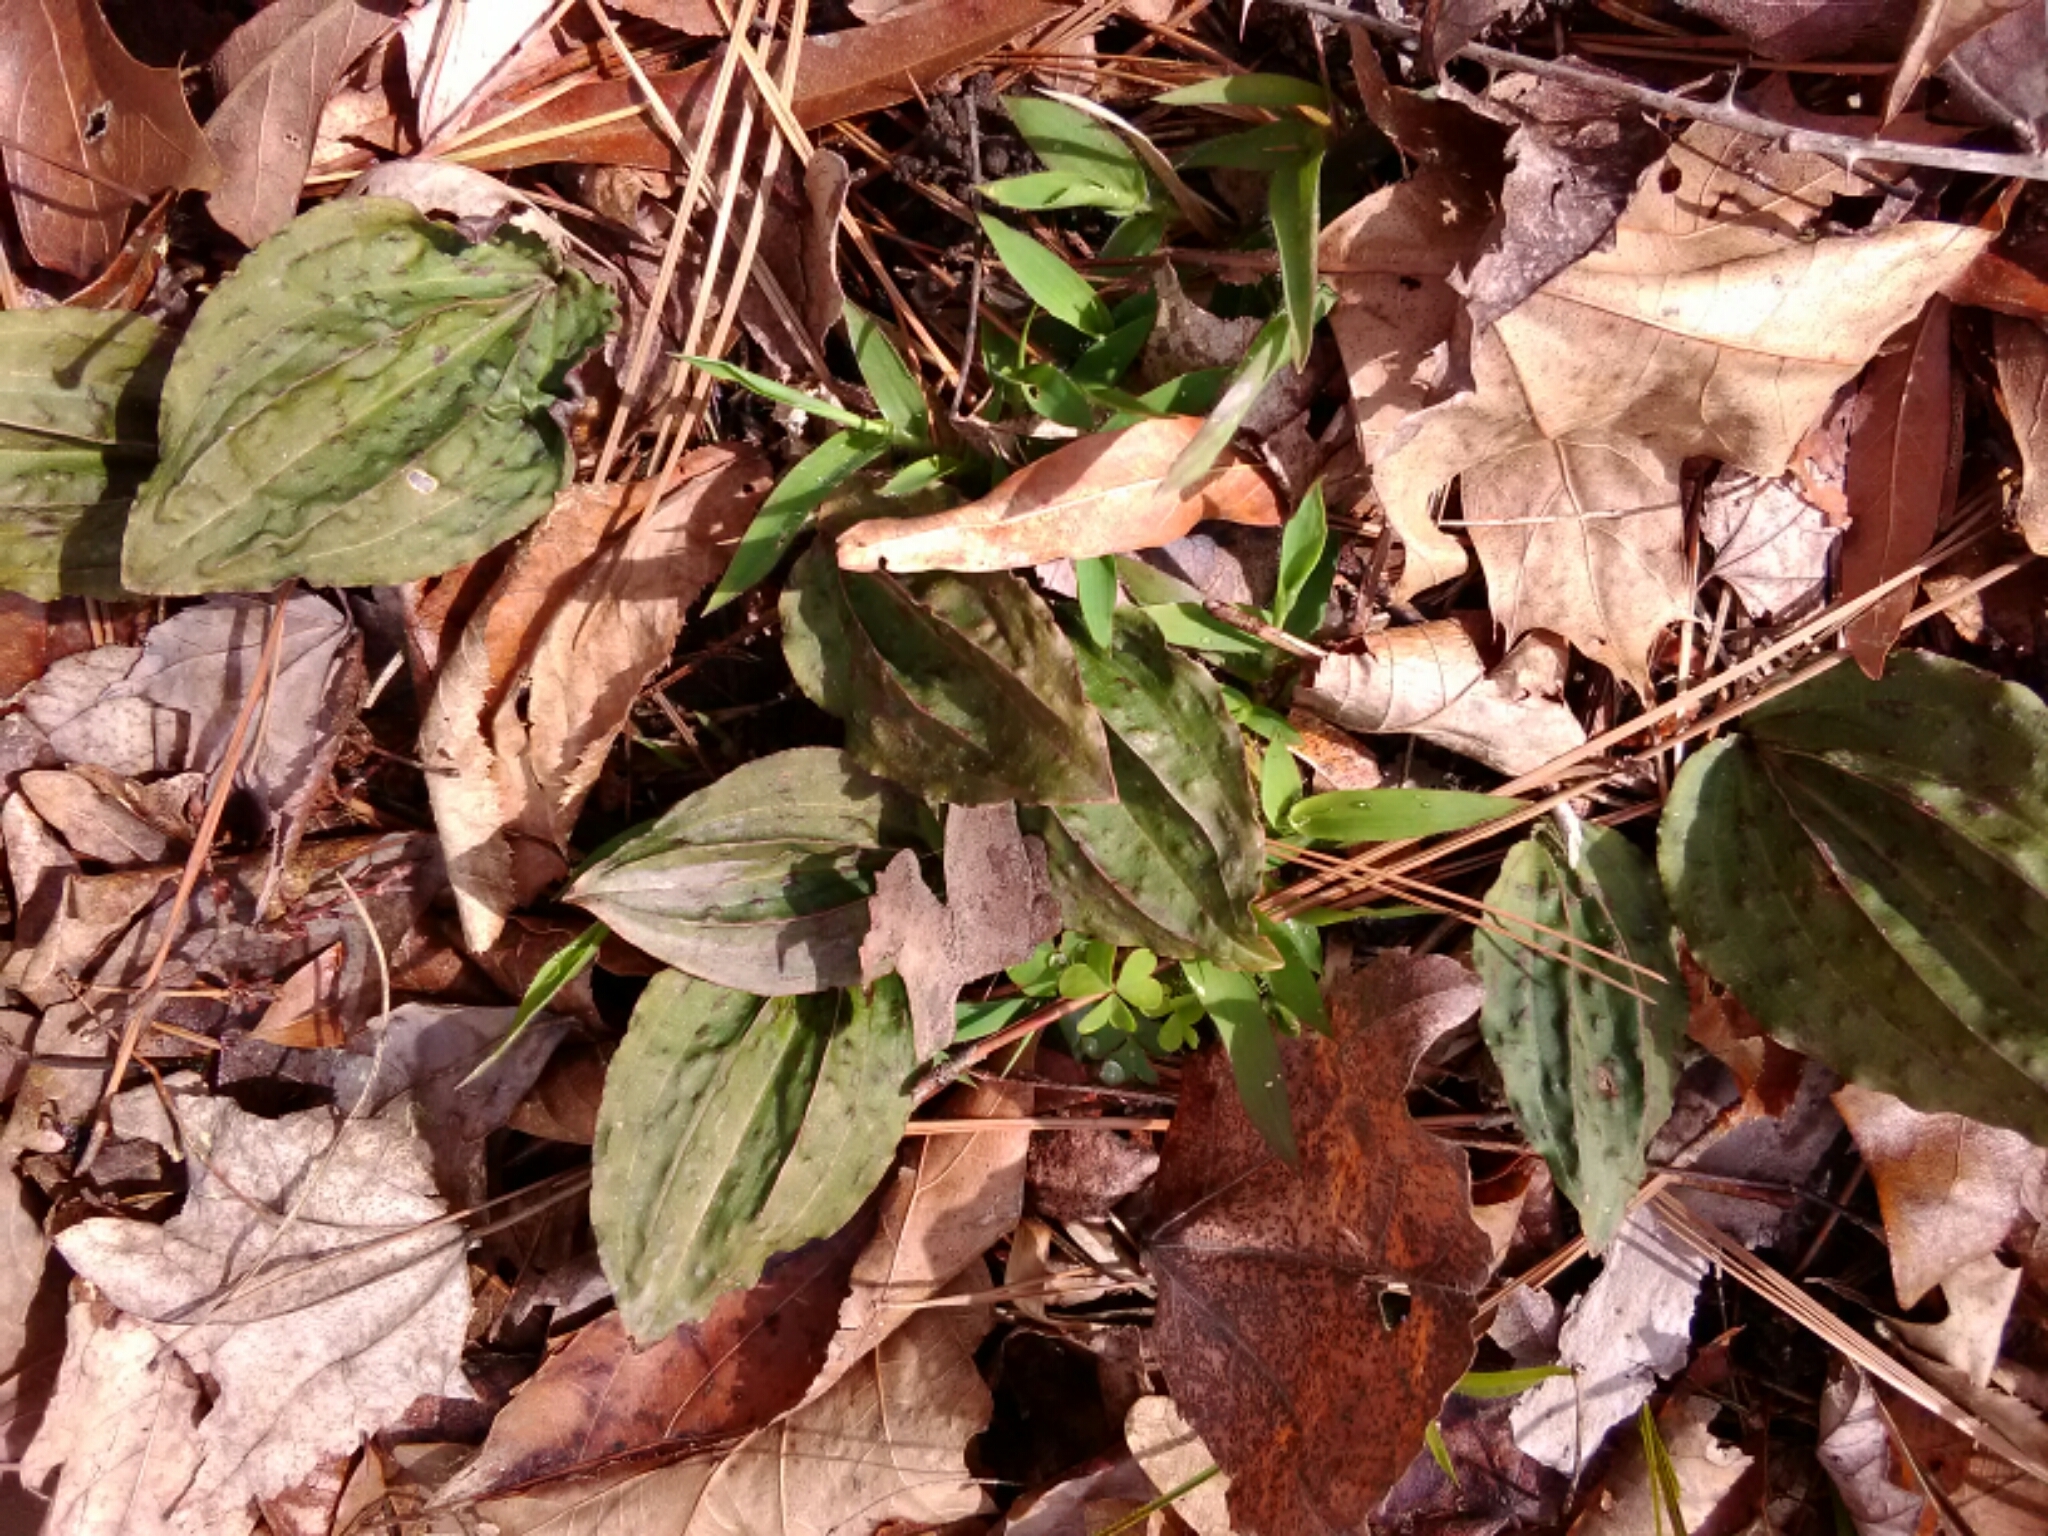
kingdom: Plantae
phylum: Tracheophyta
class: Liliopsida
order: Asparagales
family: Orchidaceae
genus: Tipularia
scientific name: Tipularia discolor
